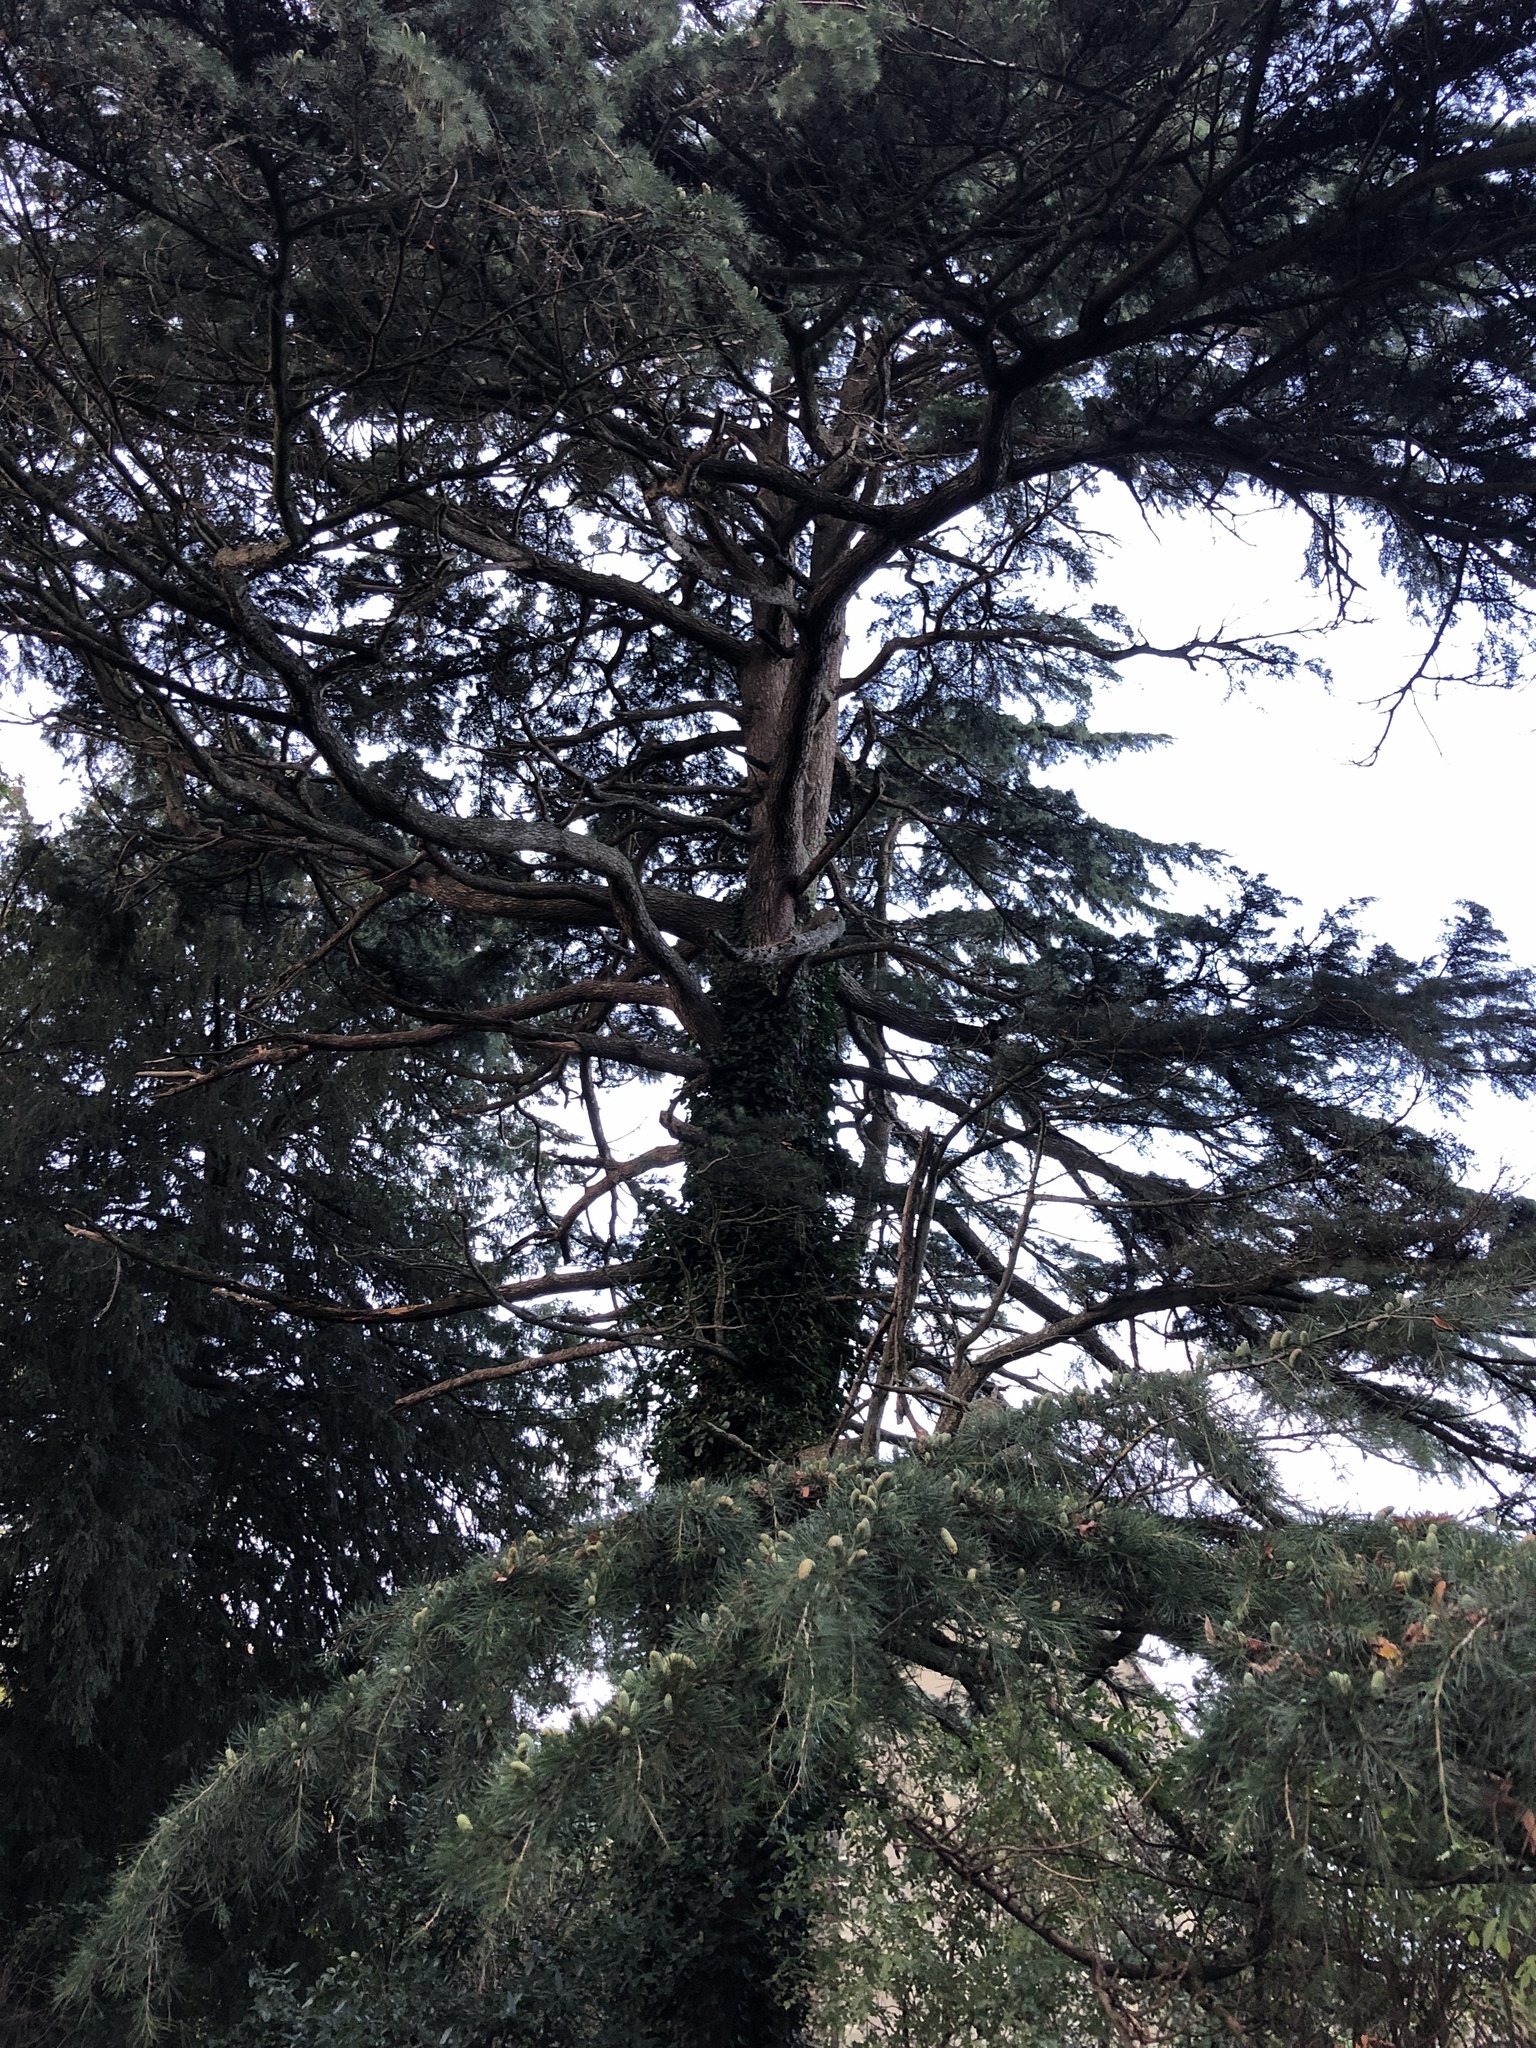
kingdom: Plantae
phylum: Tracheophyta
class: Pinopsida
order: Pinales
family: Pinaceae
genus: Cedrus
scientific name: Cedrus deodara
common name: Deodar
